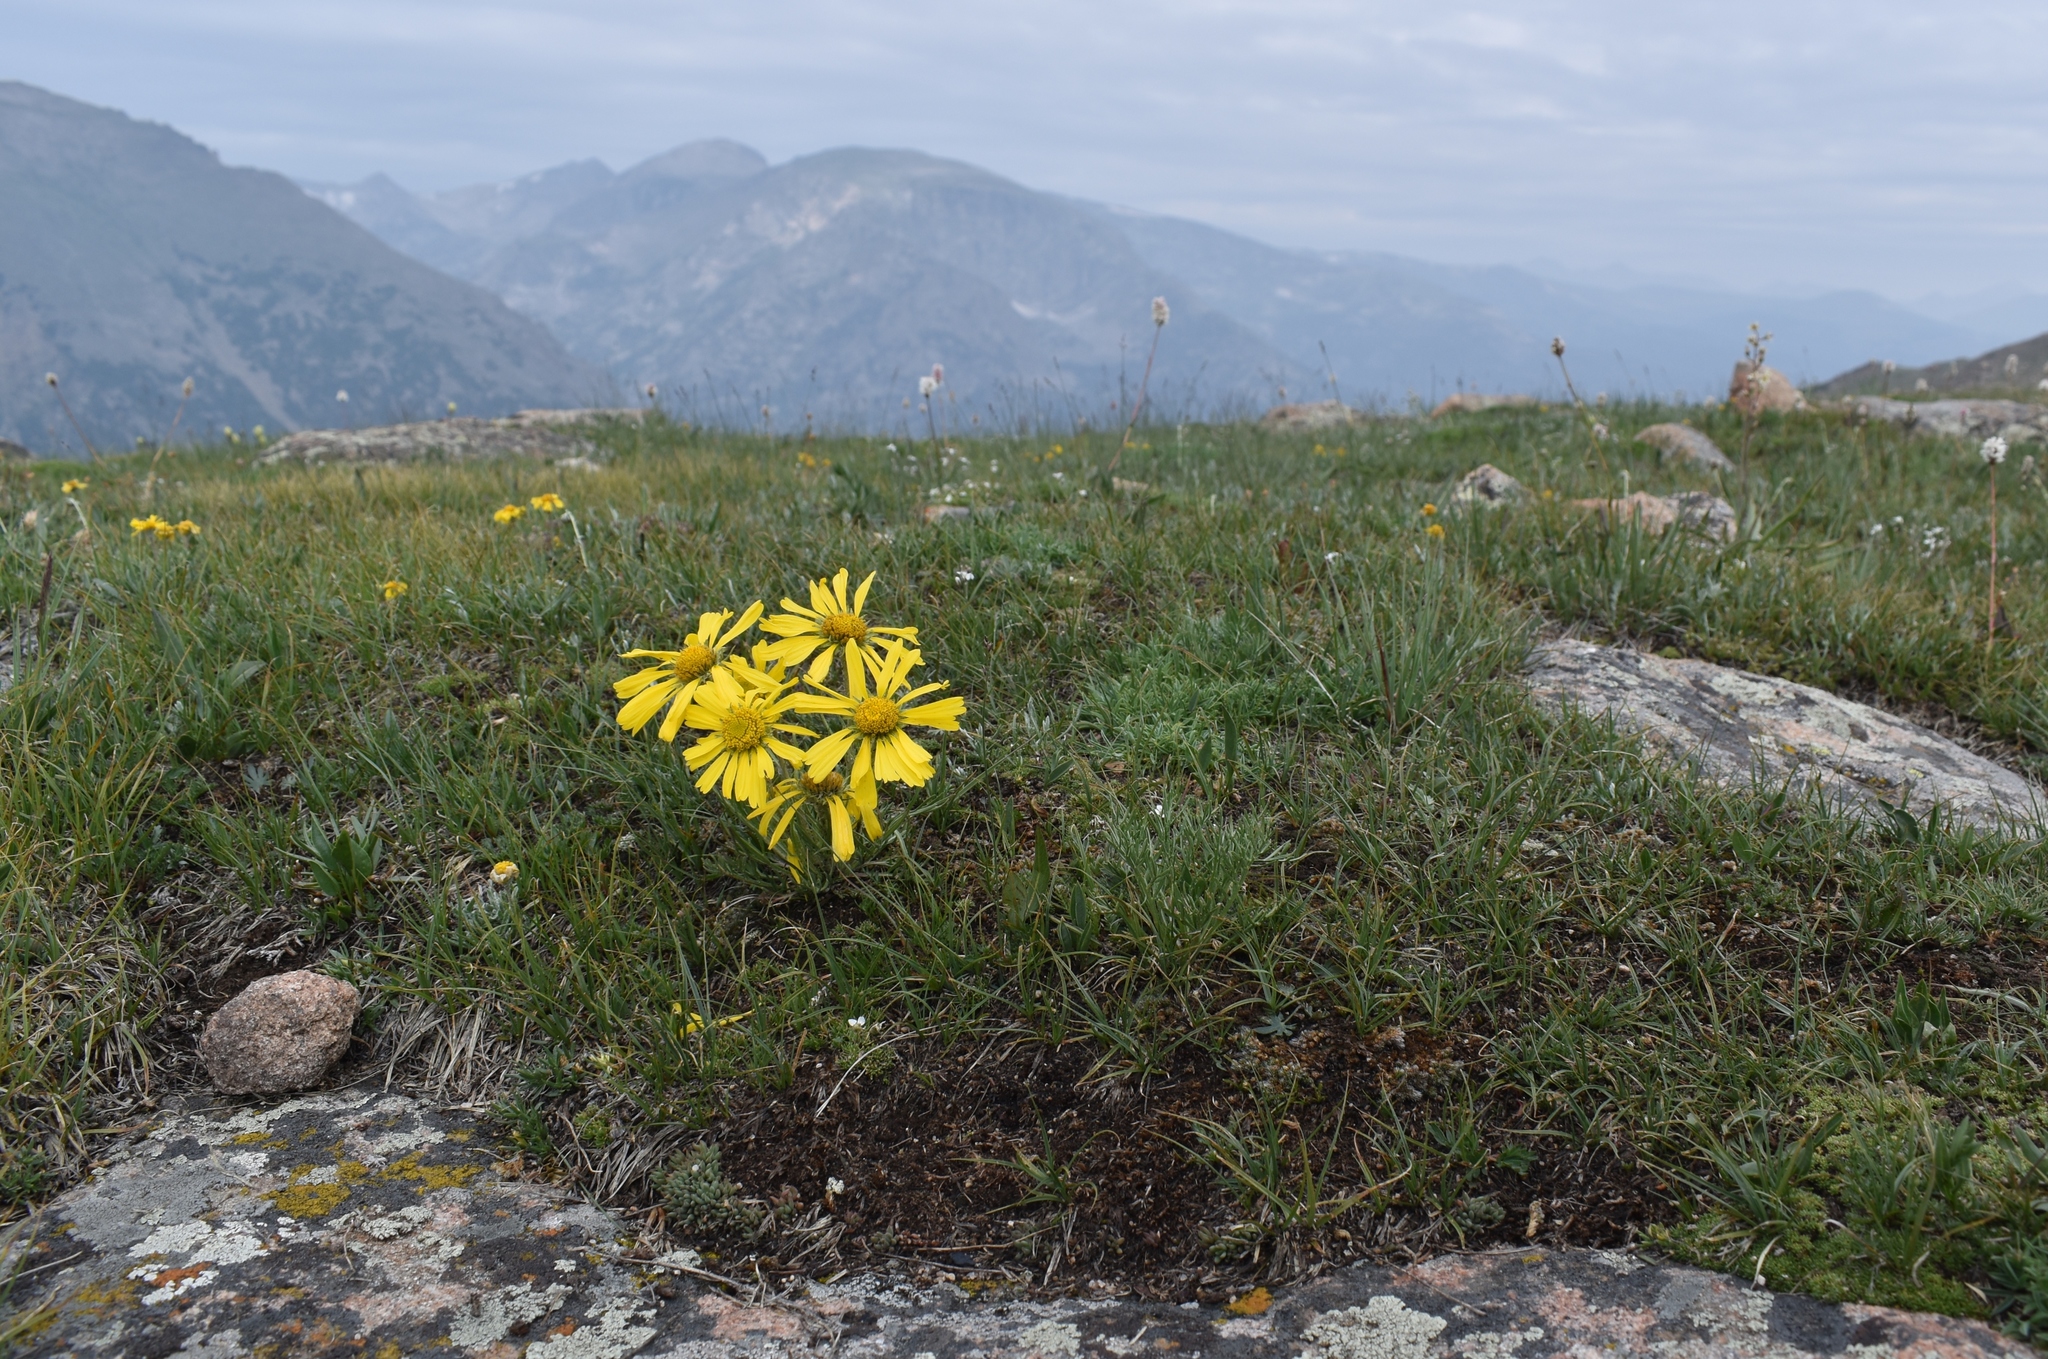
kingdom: Plantae
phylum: Tracheophyta
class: Magnoliopsida
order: Asterales
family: Asteraceae
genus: Hymenoxys
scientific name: Hymenoxys grandiflora
